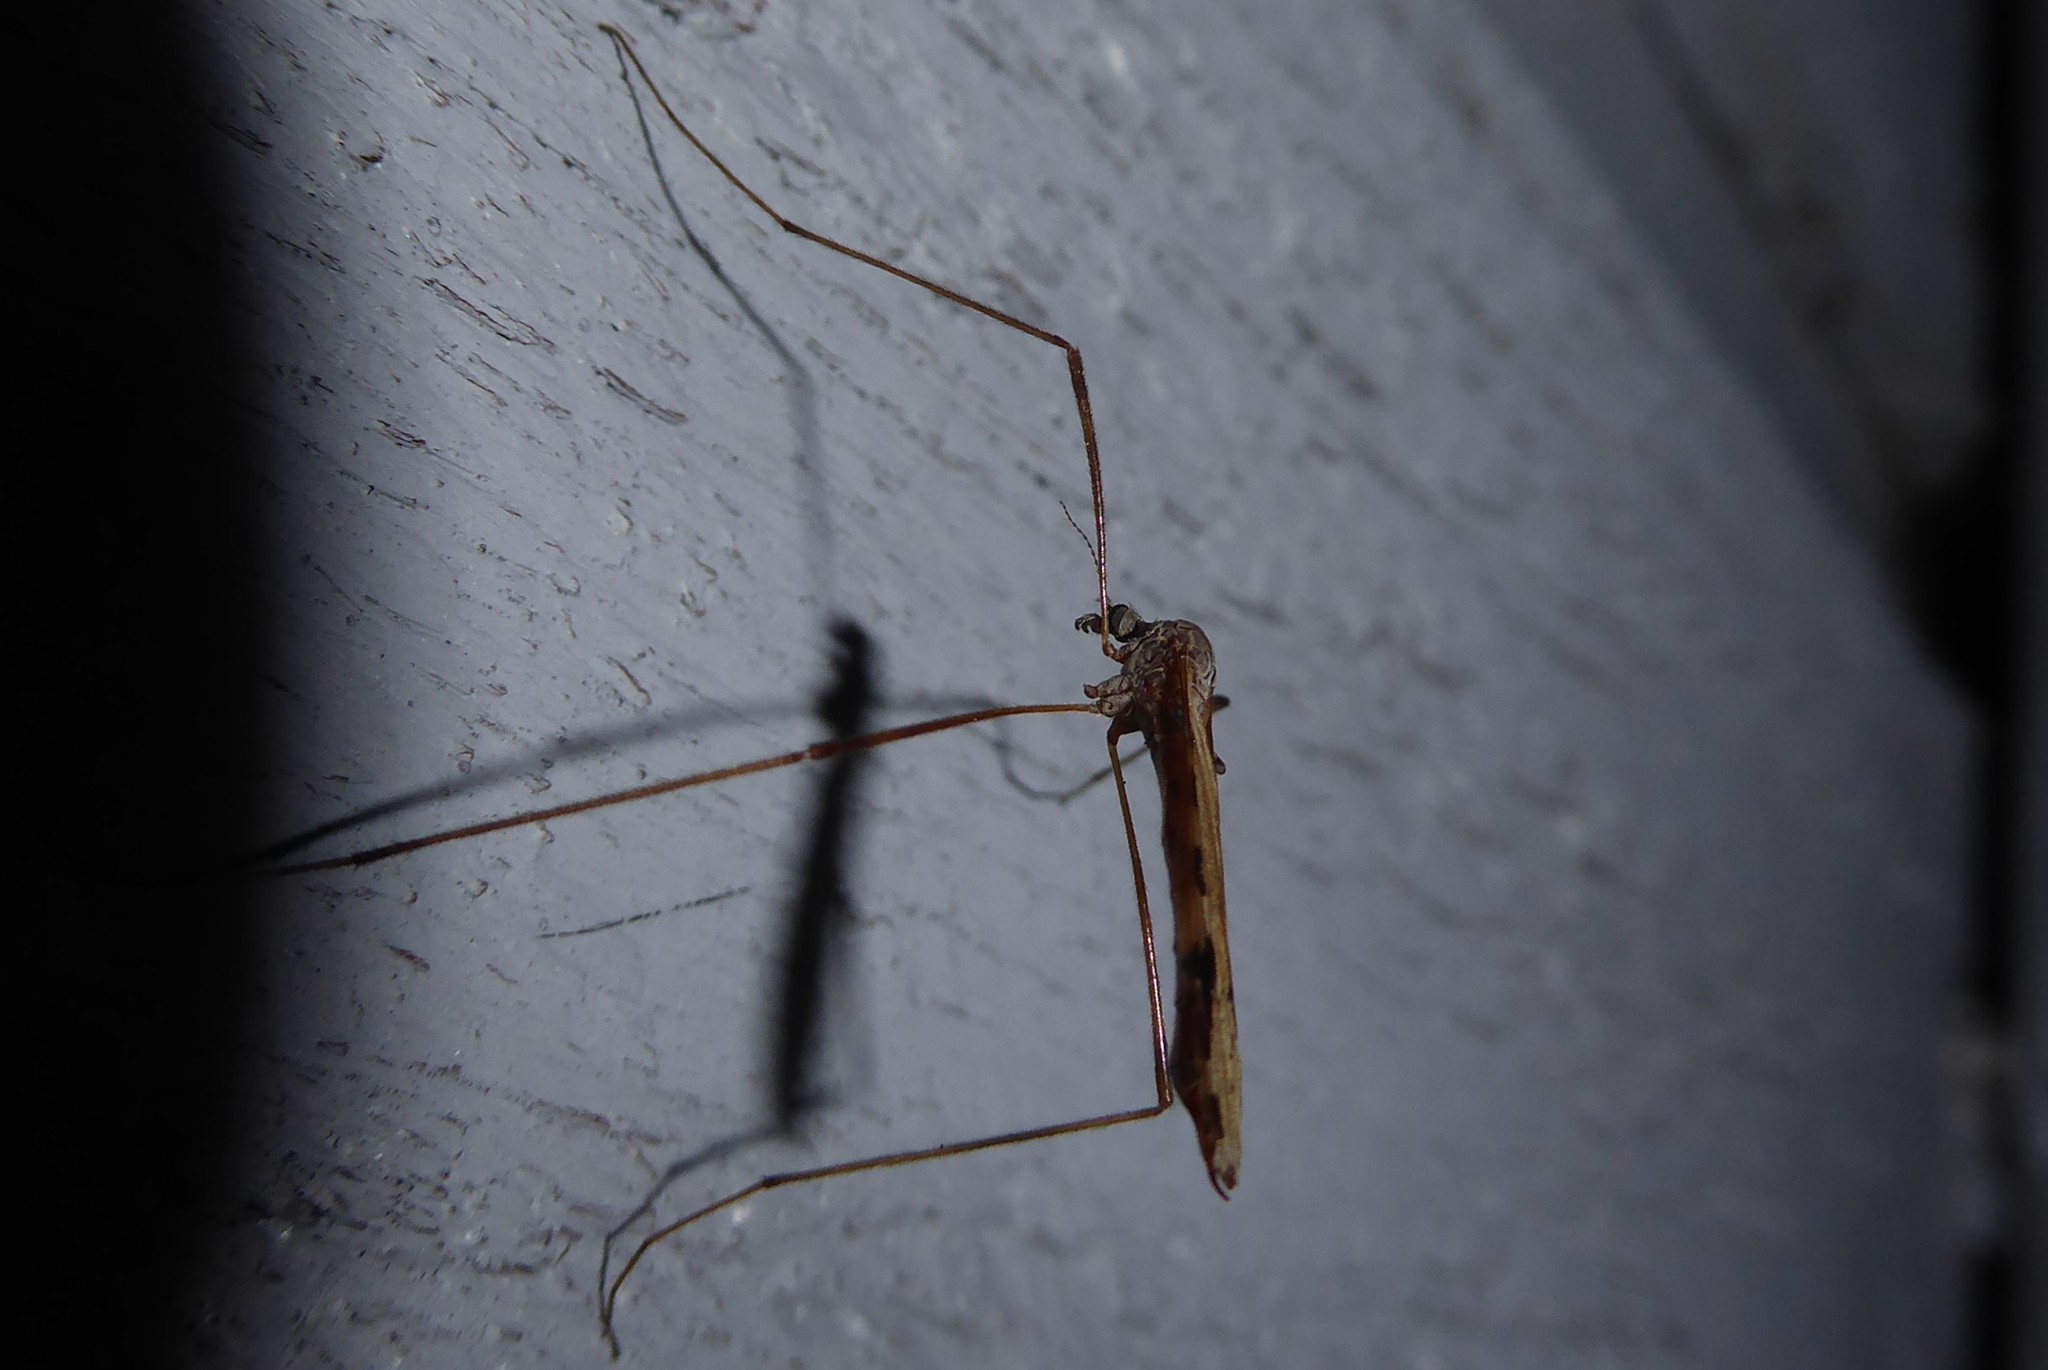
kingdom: Animalia
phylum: Arthropoda
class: Insecta
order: Diptera
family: Limoniidae
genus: Paralimnophila
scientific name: Paralimnophila skusei
